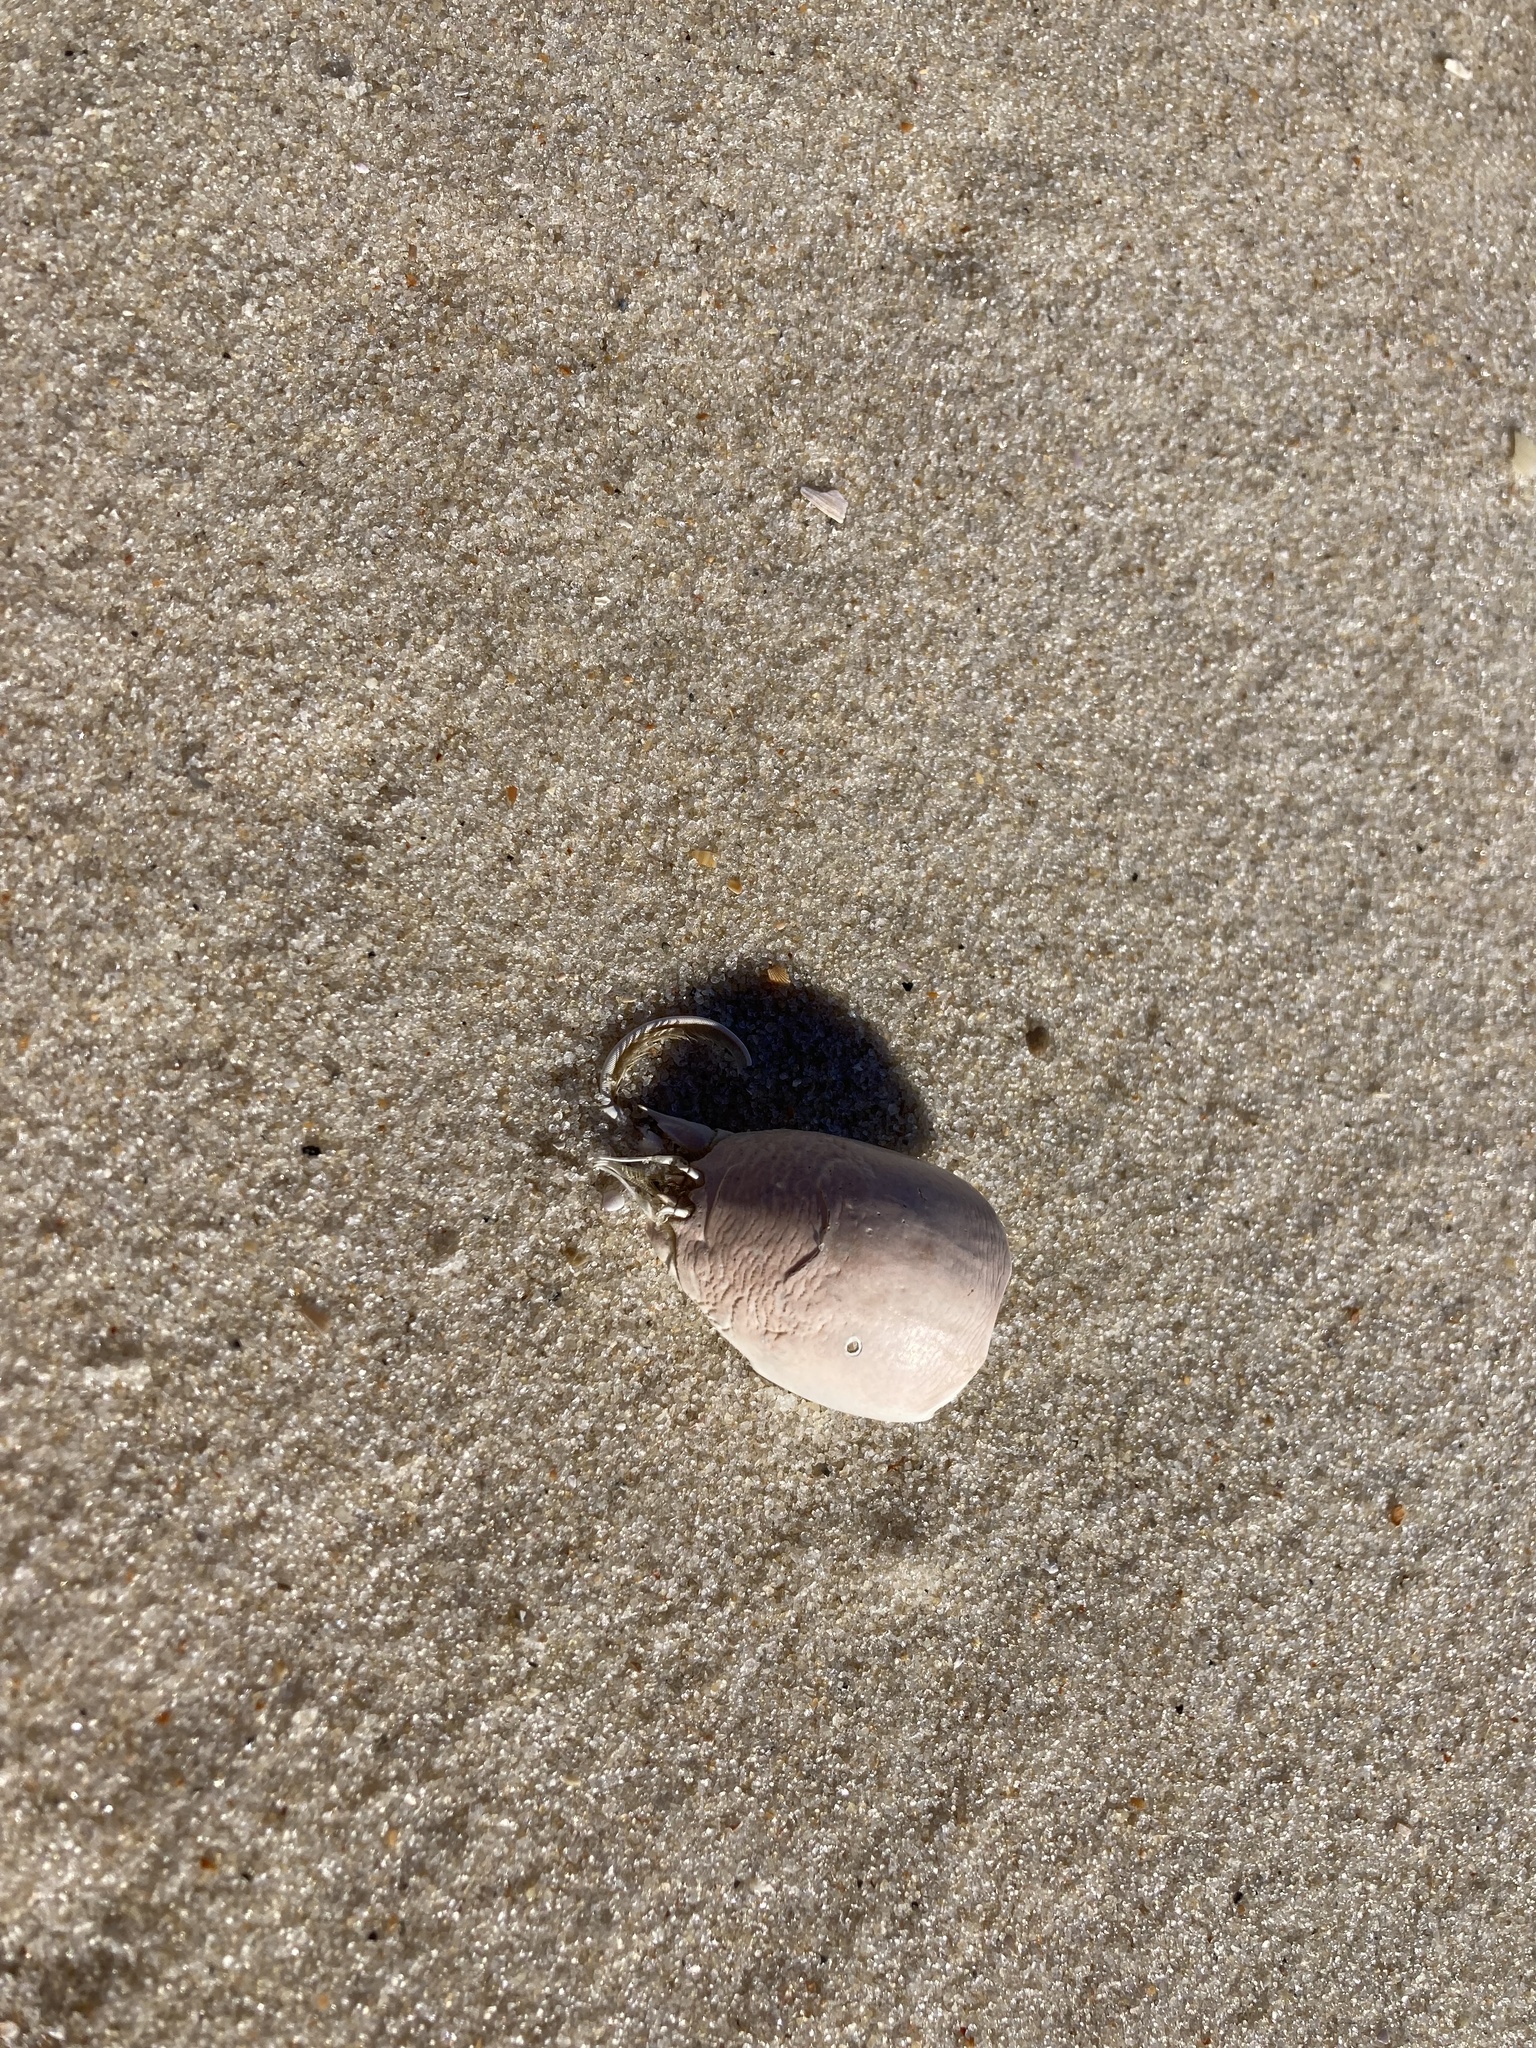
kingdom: Animalia
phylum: Arthropoda
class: Malacostraca
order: Decapoda
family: Hippidae
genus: Emerita
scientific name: Emerita talpoida
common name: Atlantic sand crab
